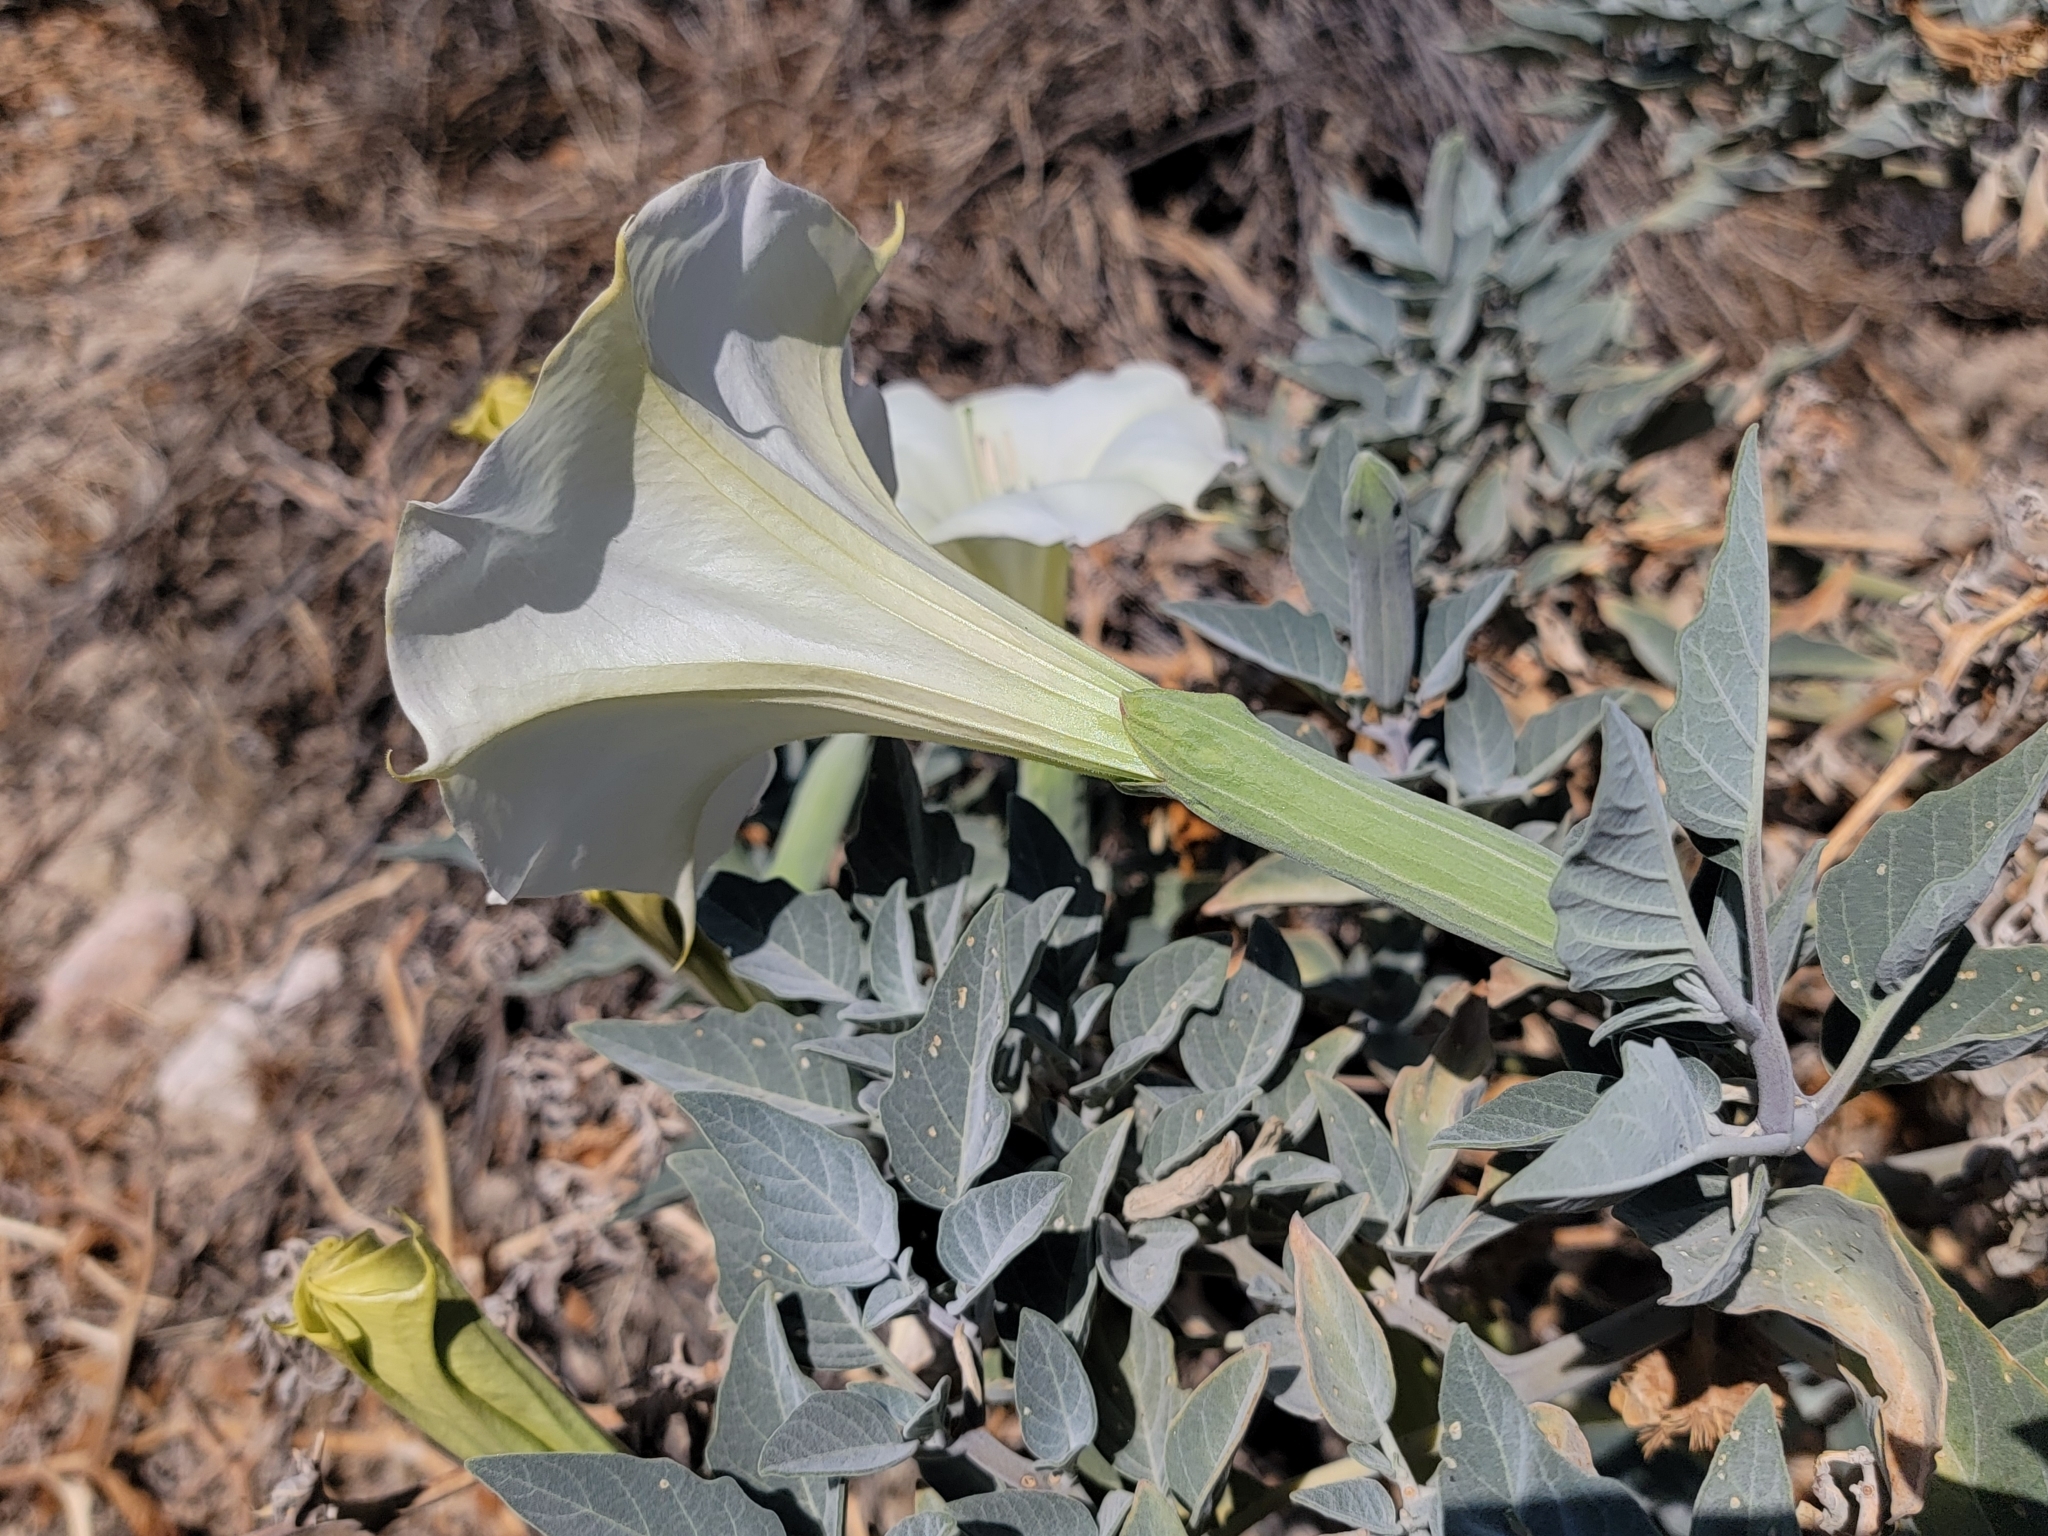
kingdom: Plantae
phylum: Tracheophyta
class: Magnoliopsida
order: Solanales
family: Solanaceae
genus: Datura
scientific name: Datura wrightii
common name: Sacred thorn-apple
